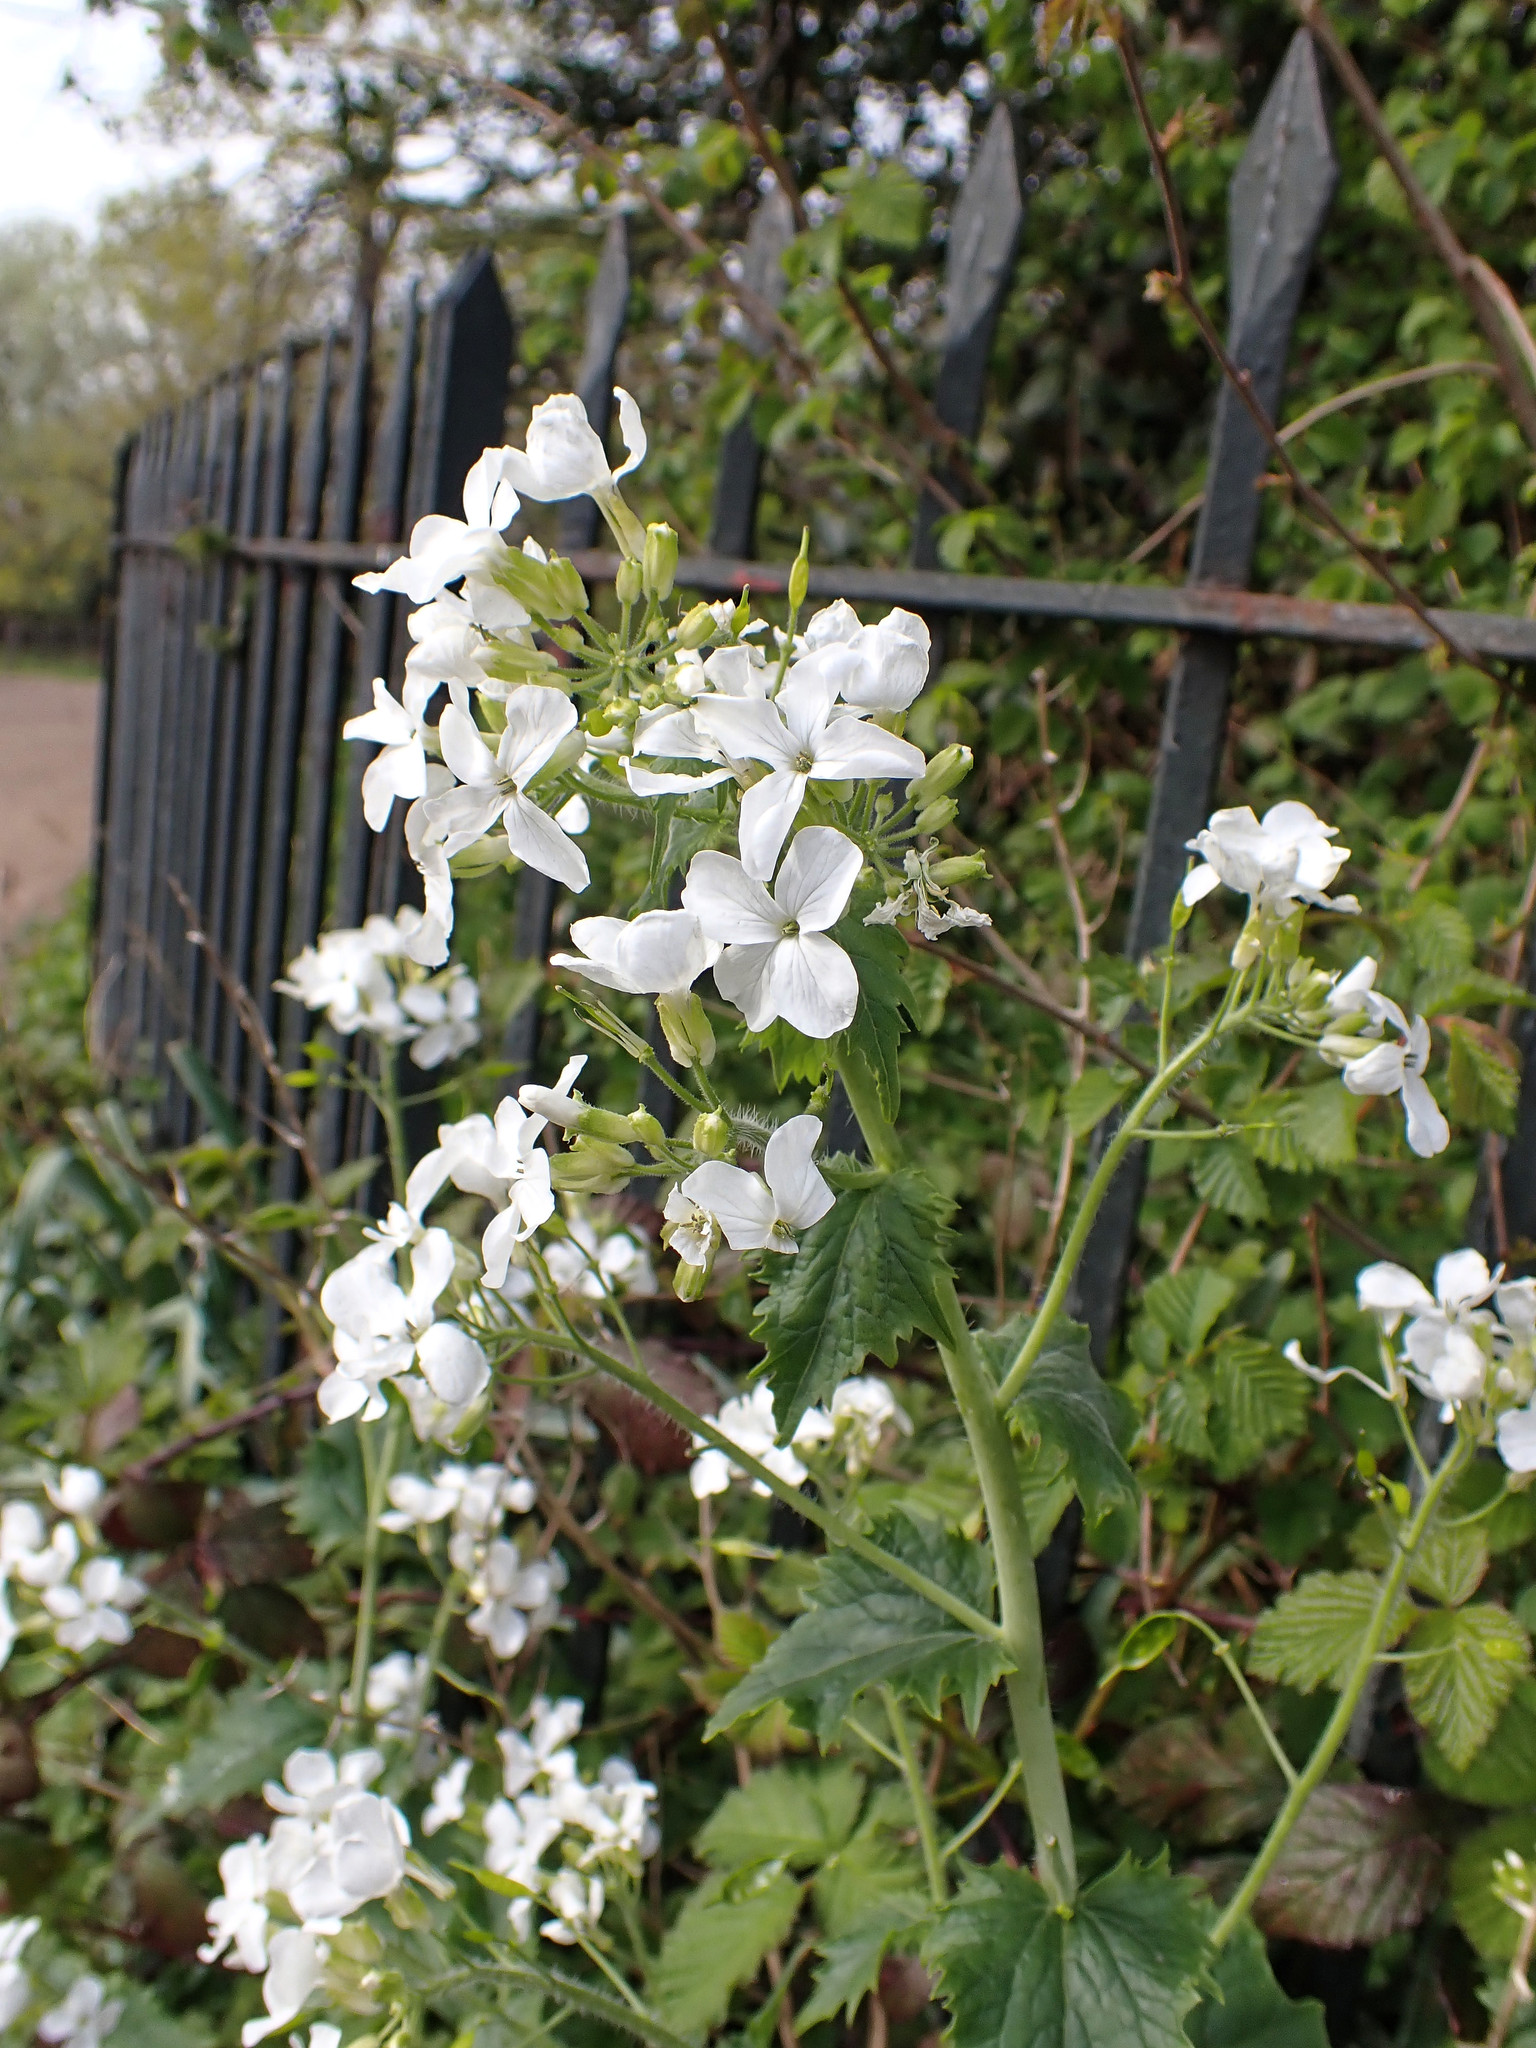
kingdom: Plantae
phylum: Tracheophyta
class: Magnoliopsida
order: Brassicales
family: Brassicaceae
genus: Lunaria
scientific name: Lunaria annua
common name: Honesty
